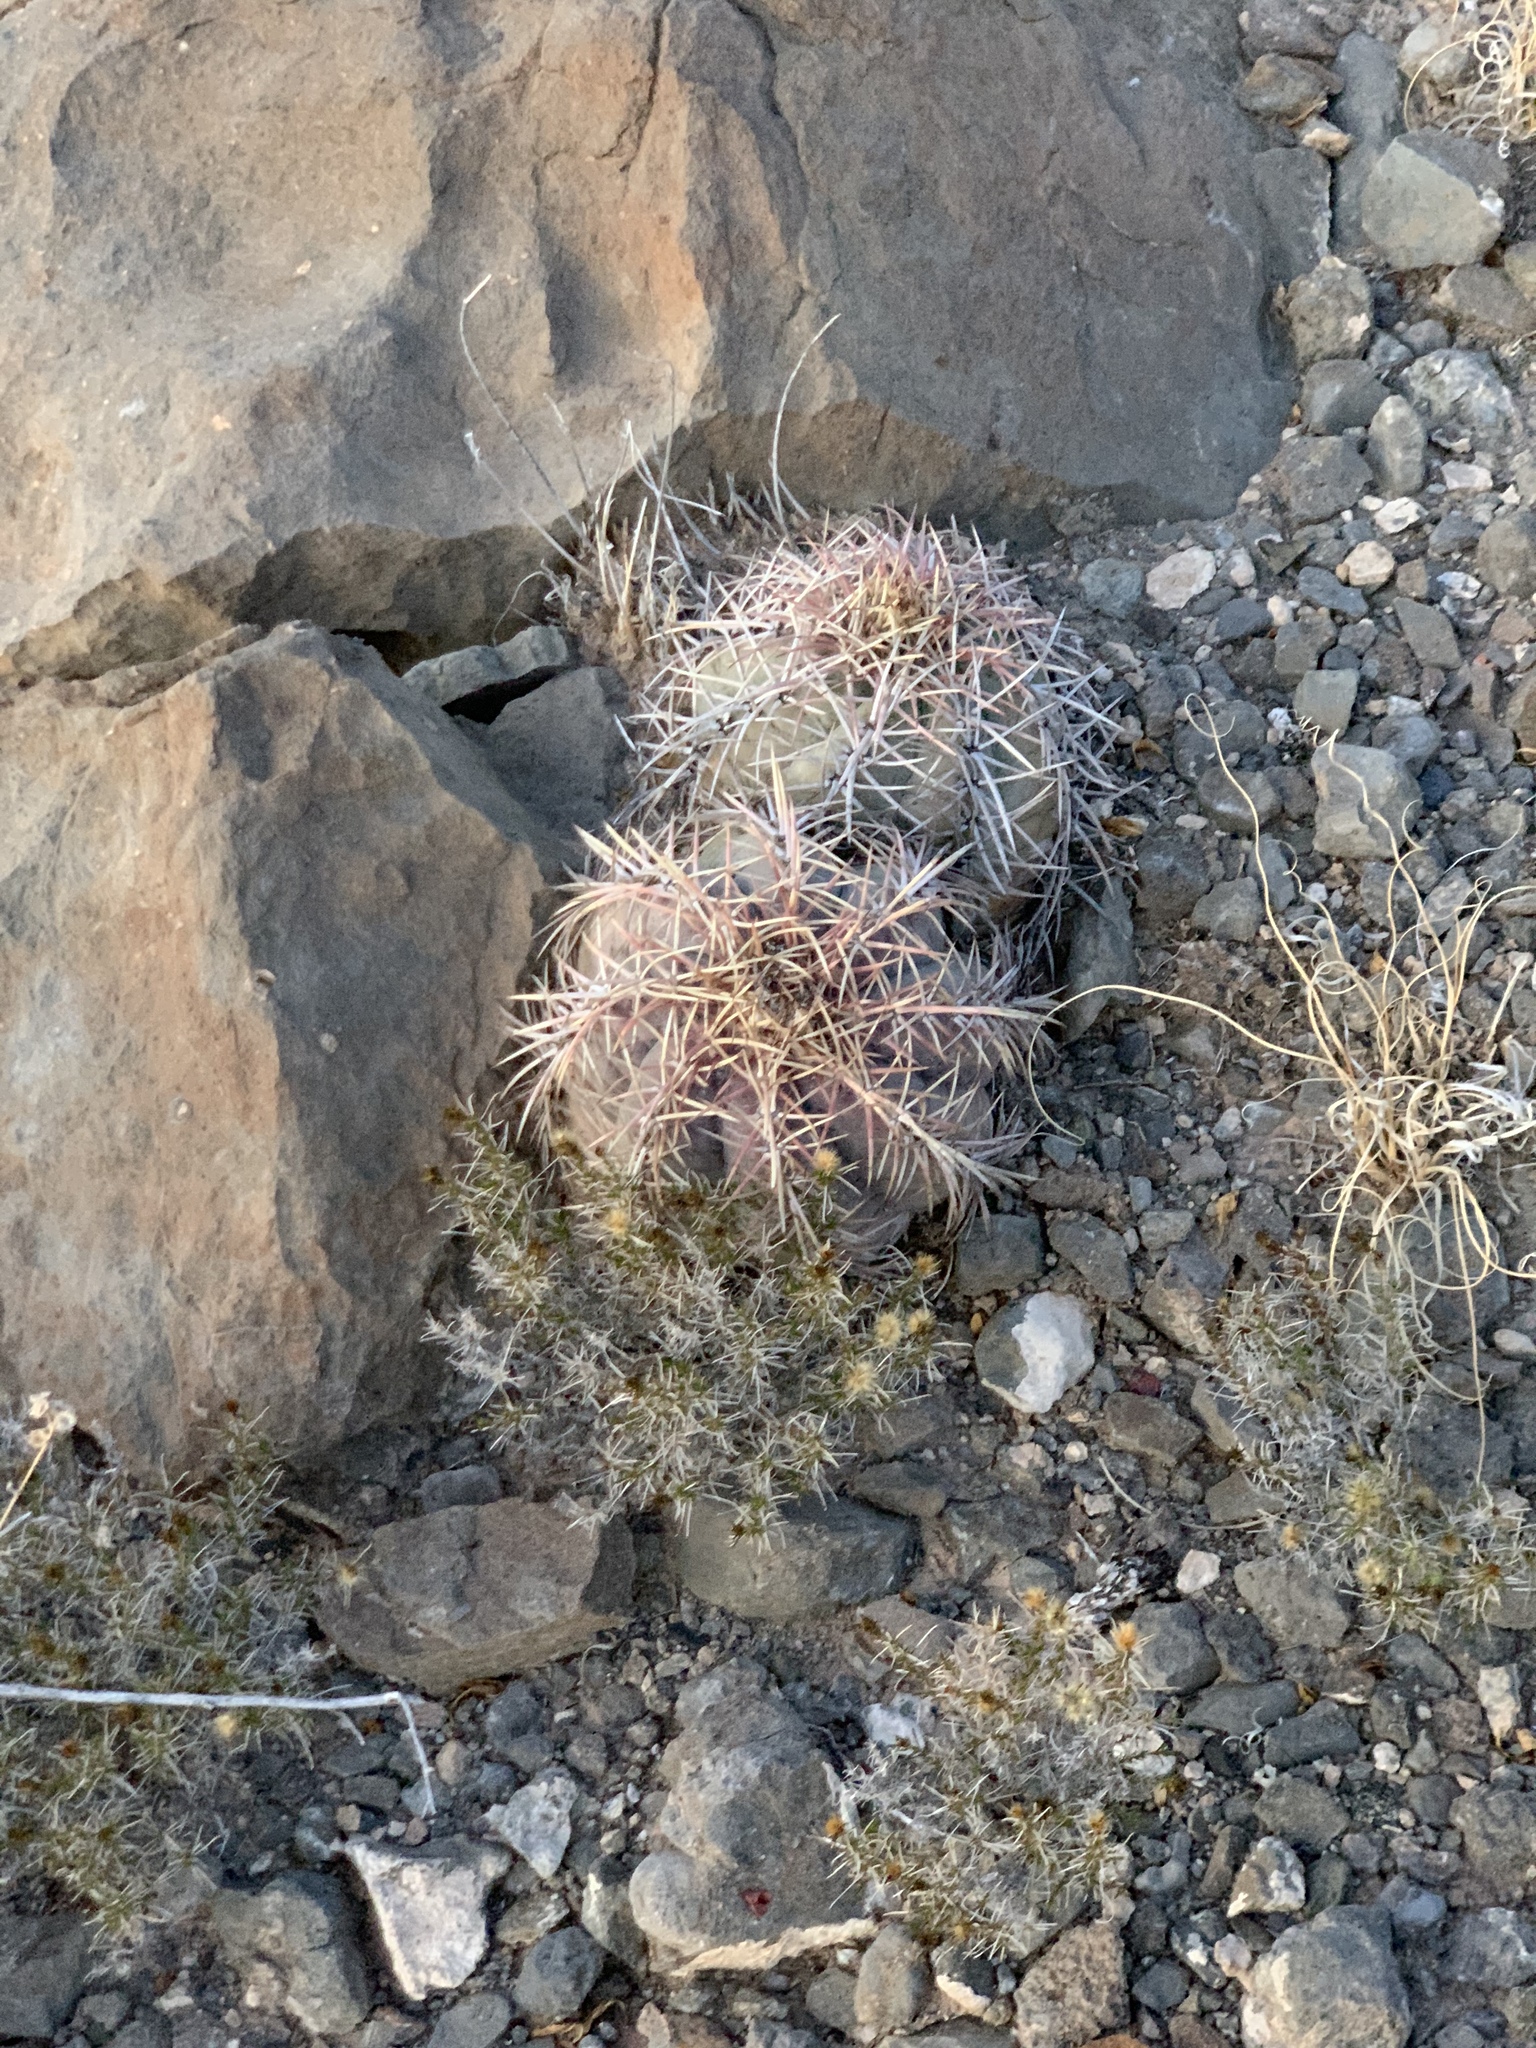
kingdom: Plantae
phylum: Tracheophyta
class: Magnoliopsida
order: Caryophyllales
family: Cactaceae
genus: Echinocactus
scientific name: Echinocactus horizonthalonius
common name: Devilshead
